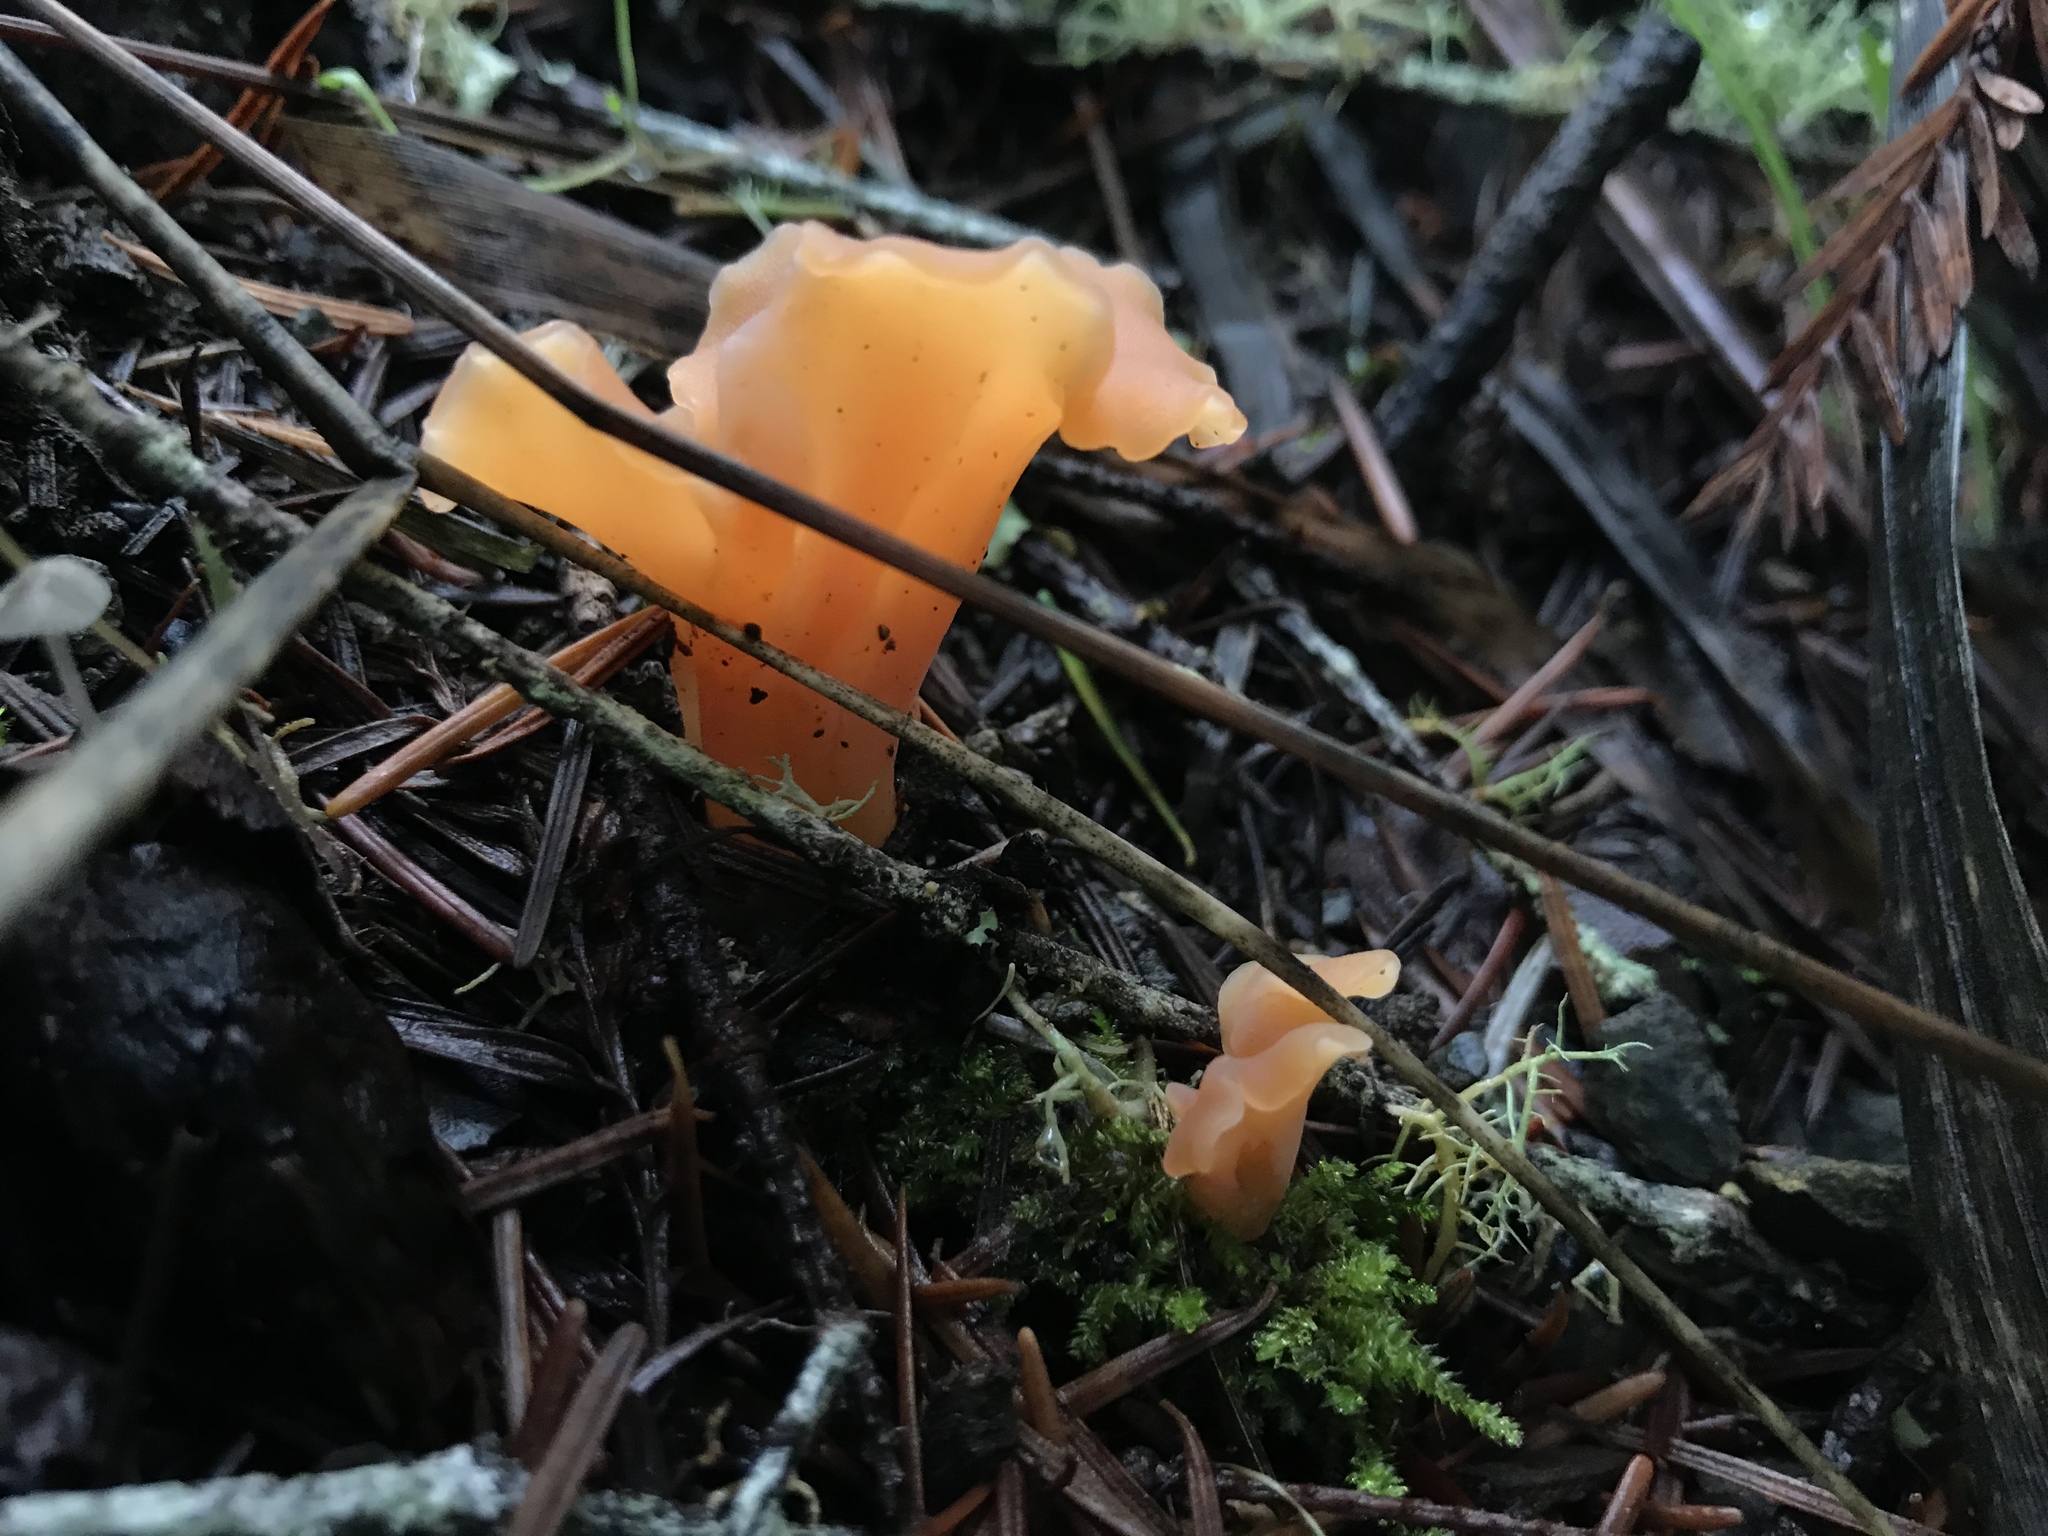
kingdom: Fungi
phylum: Basidiomycota
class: Agaricomycetes
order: Auriculariales
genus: Guepinia
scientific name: Guepinia helvelloides
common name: Salmon salad
